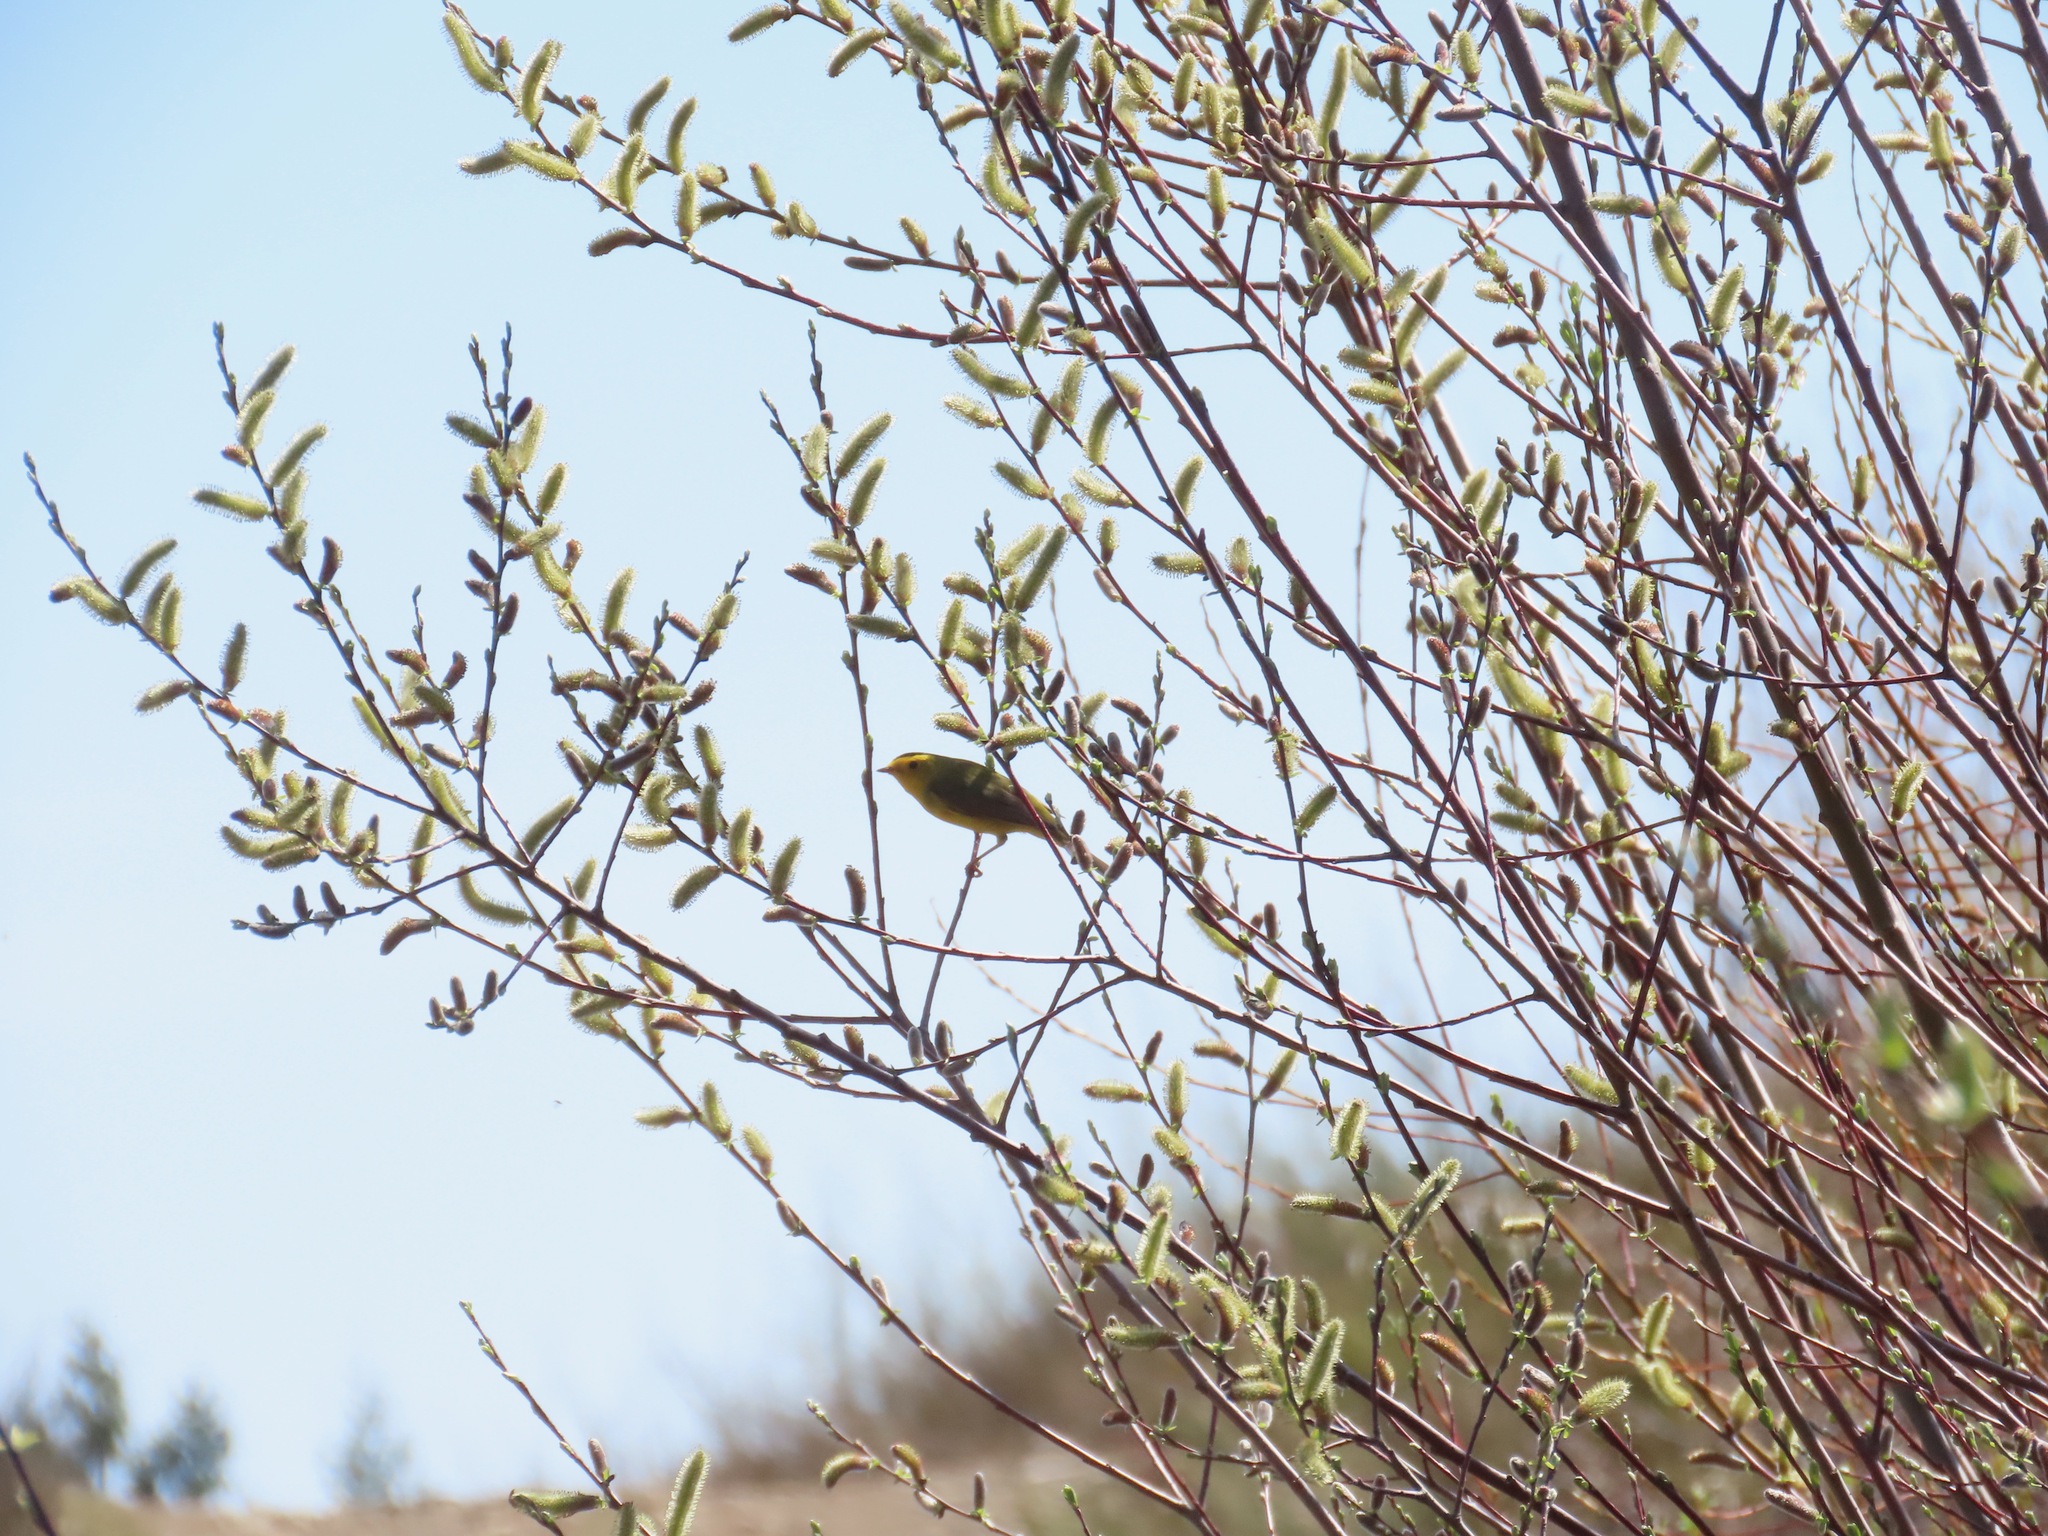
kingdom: Animalia
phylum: Chordata
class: Aves
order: Passeriformes
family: Parulidae
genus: Cardellina
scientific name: Cardellina pusilla
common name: Wilson's warbler
